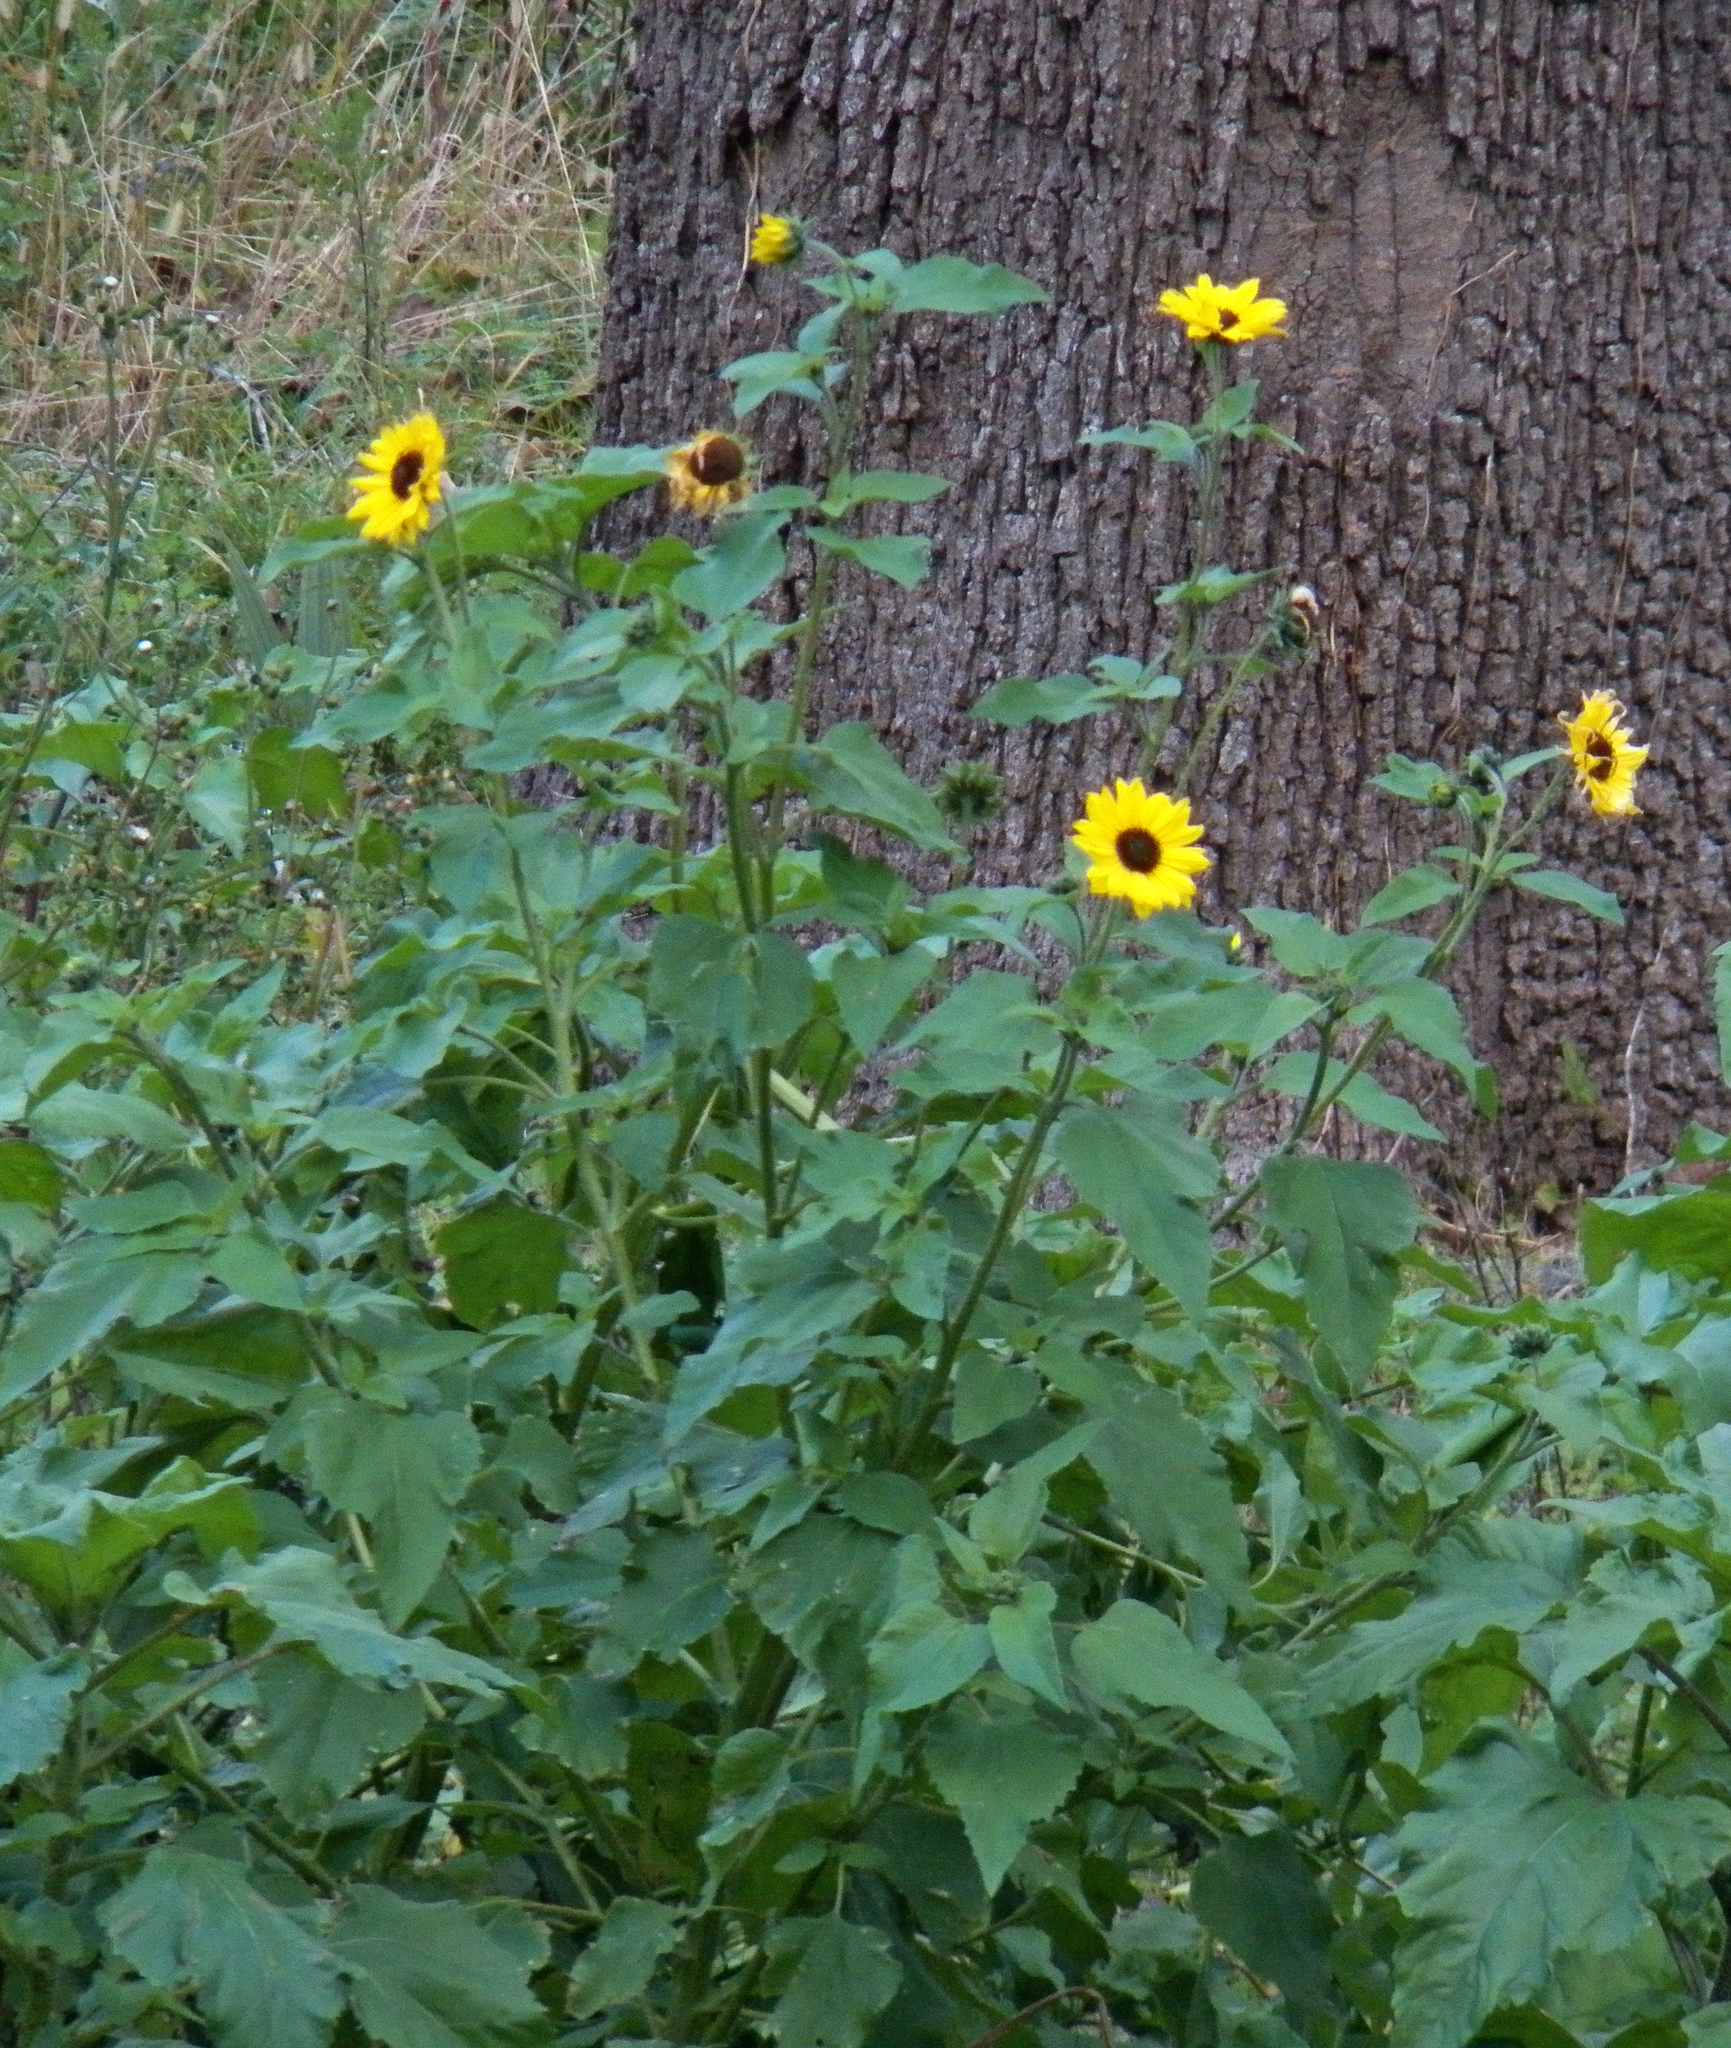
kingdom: Plantae
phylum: Tracheophyta
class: Magnoliopsida
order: Asterales
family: Asteraceae
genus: Helianthus
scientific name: Helianthus annuus
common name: Sunflower
